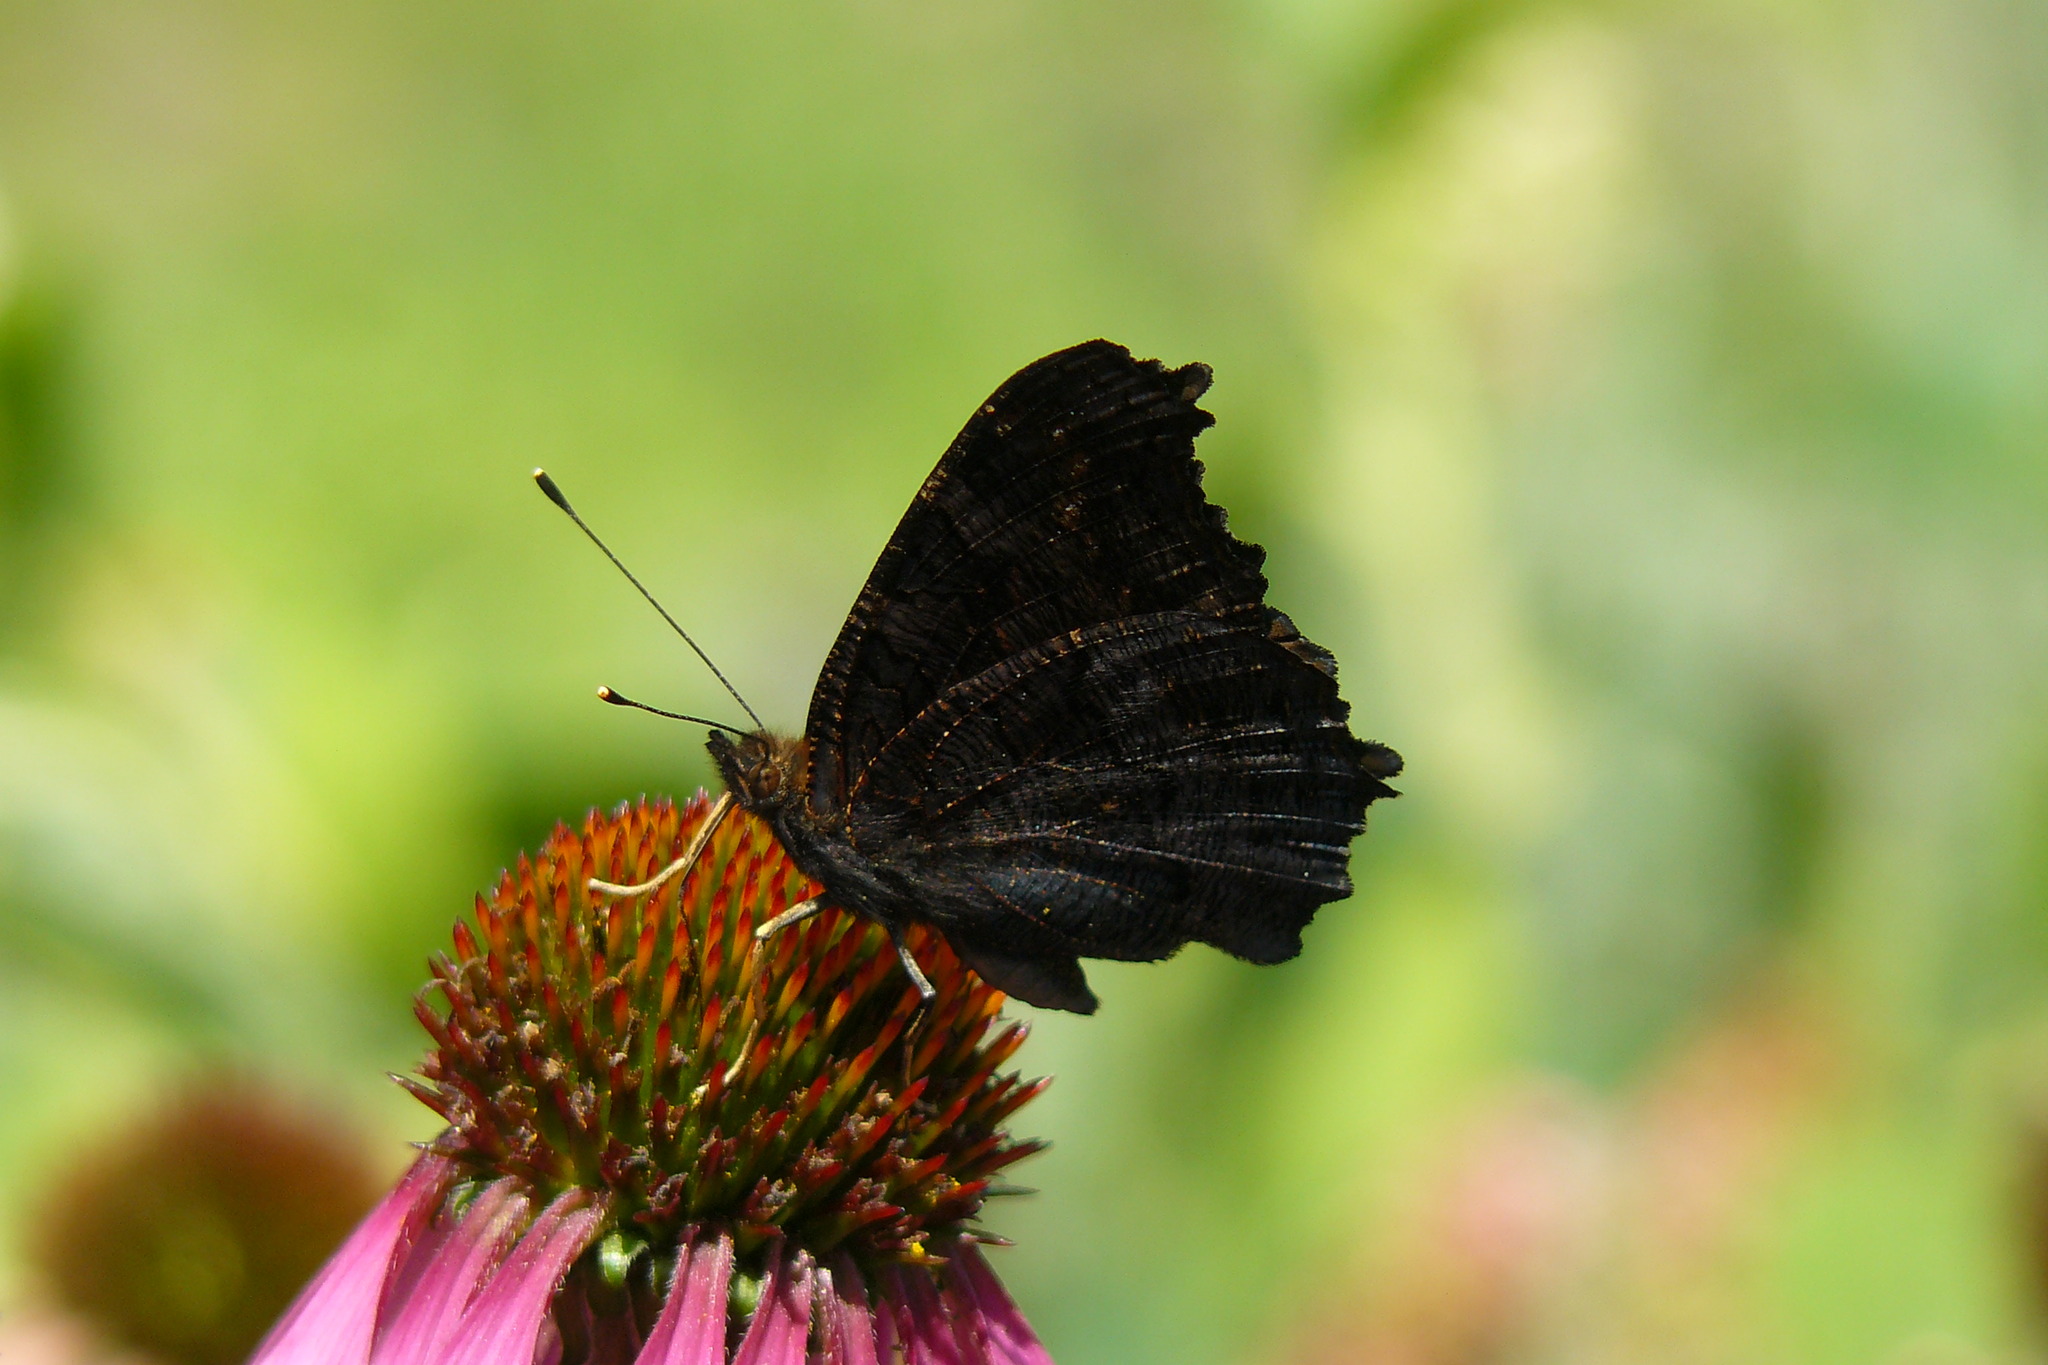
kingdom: Animalia
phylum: Arthropoda
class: Insecta
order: Lepidoptera
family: Nymphalidae
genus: Aglais
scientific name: Aglais io
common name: Peacock
